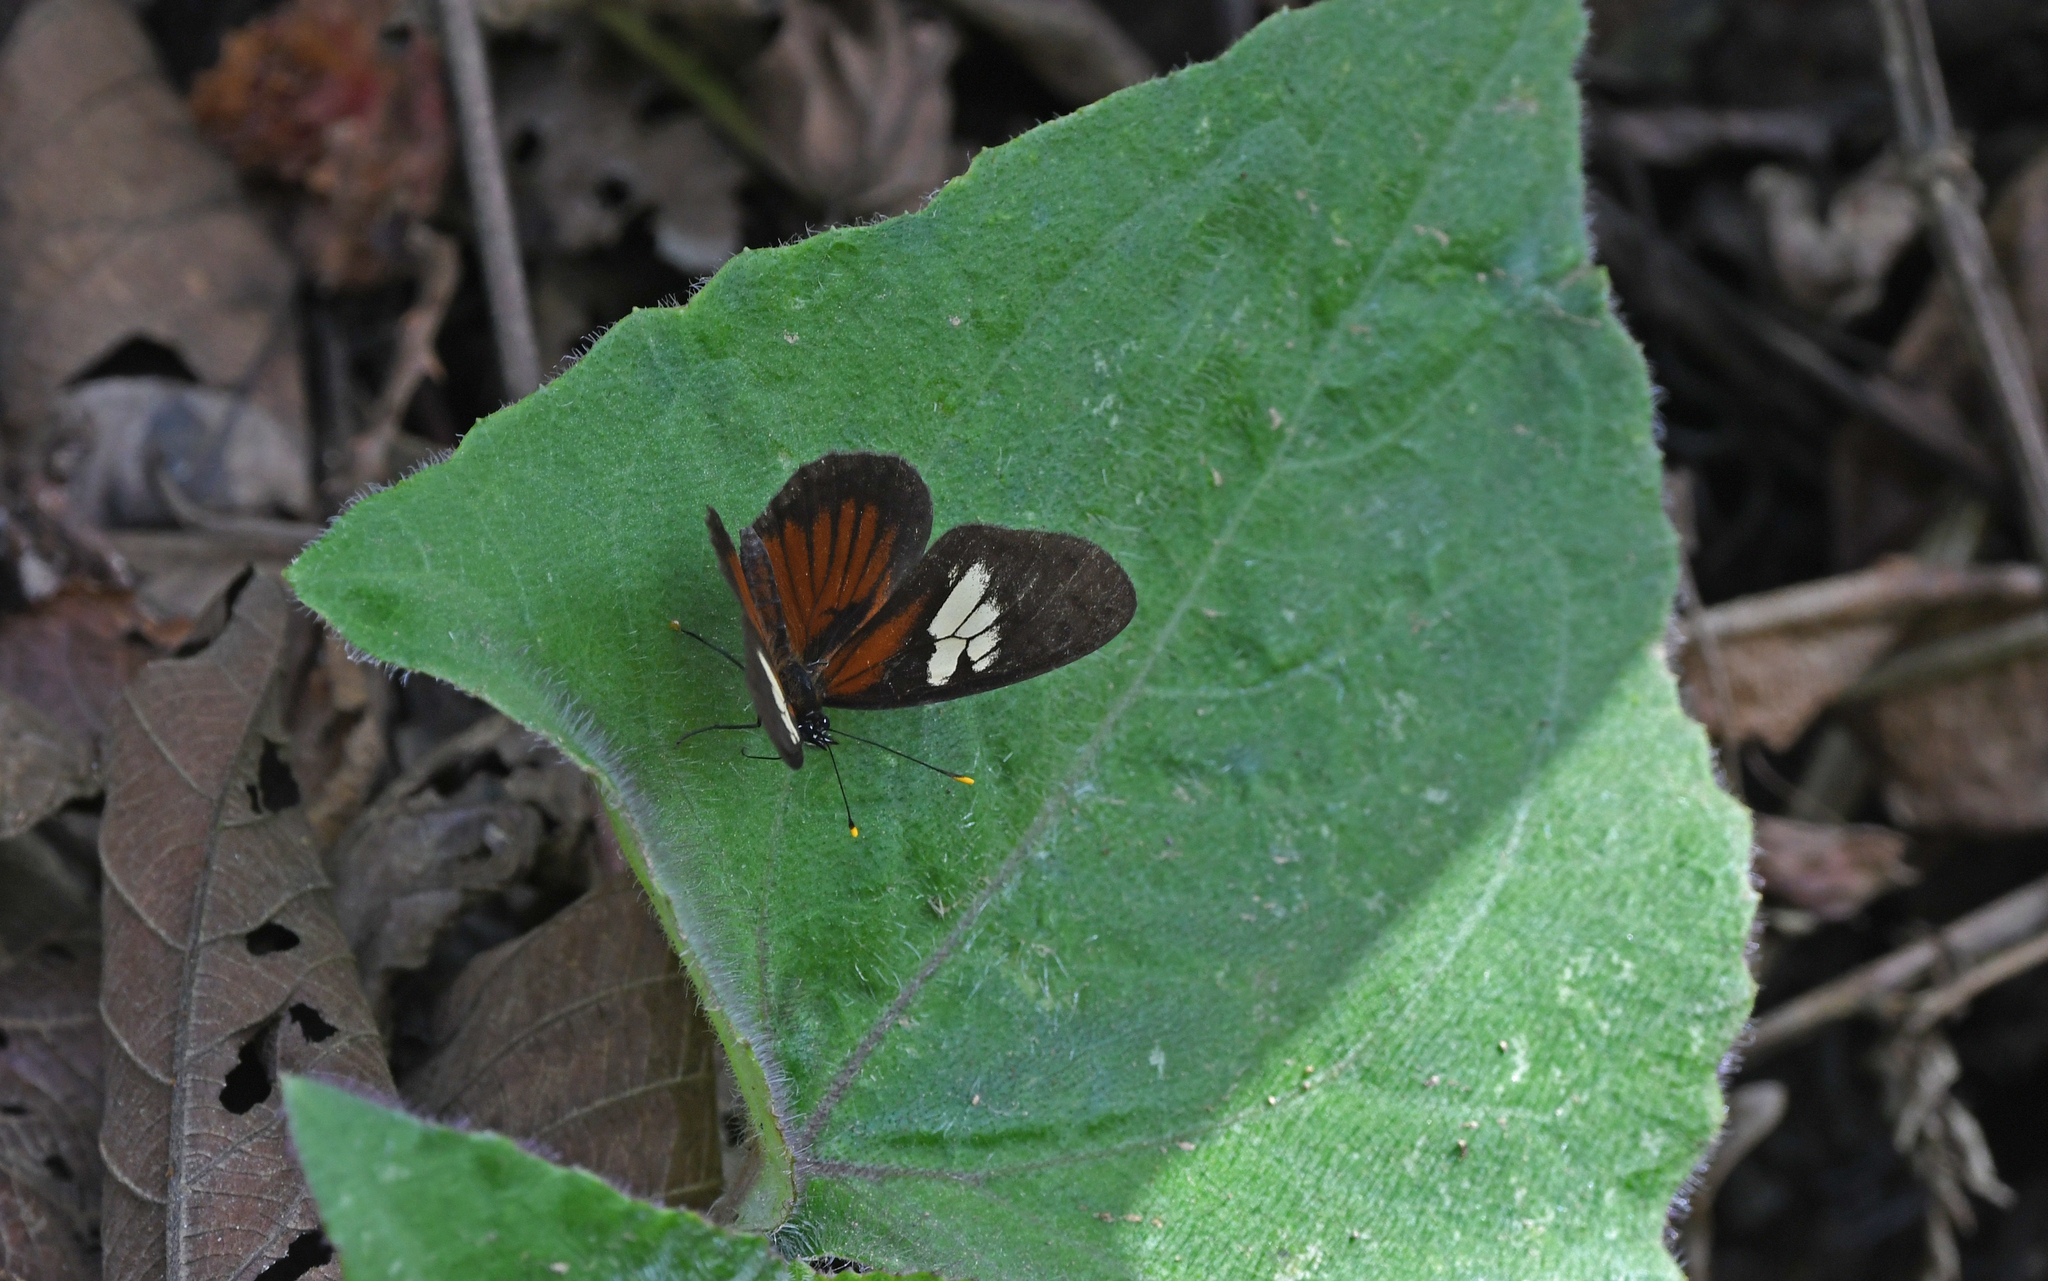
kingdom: Animalia
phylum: Arthropoda
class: Insecta
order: Lepidoptera
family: Nymphalidae
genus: Eresia
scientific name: Eresia datis
